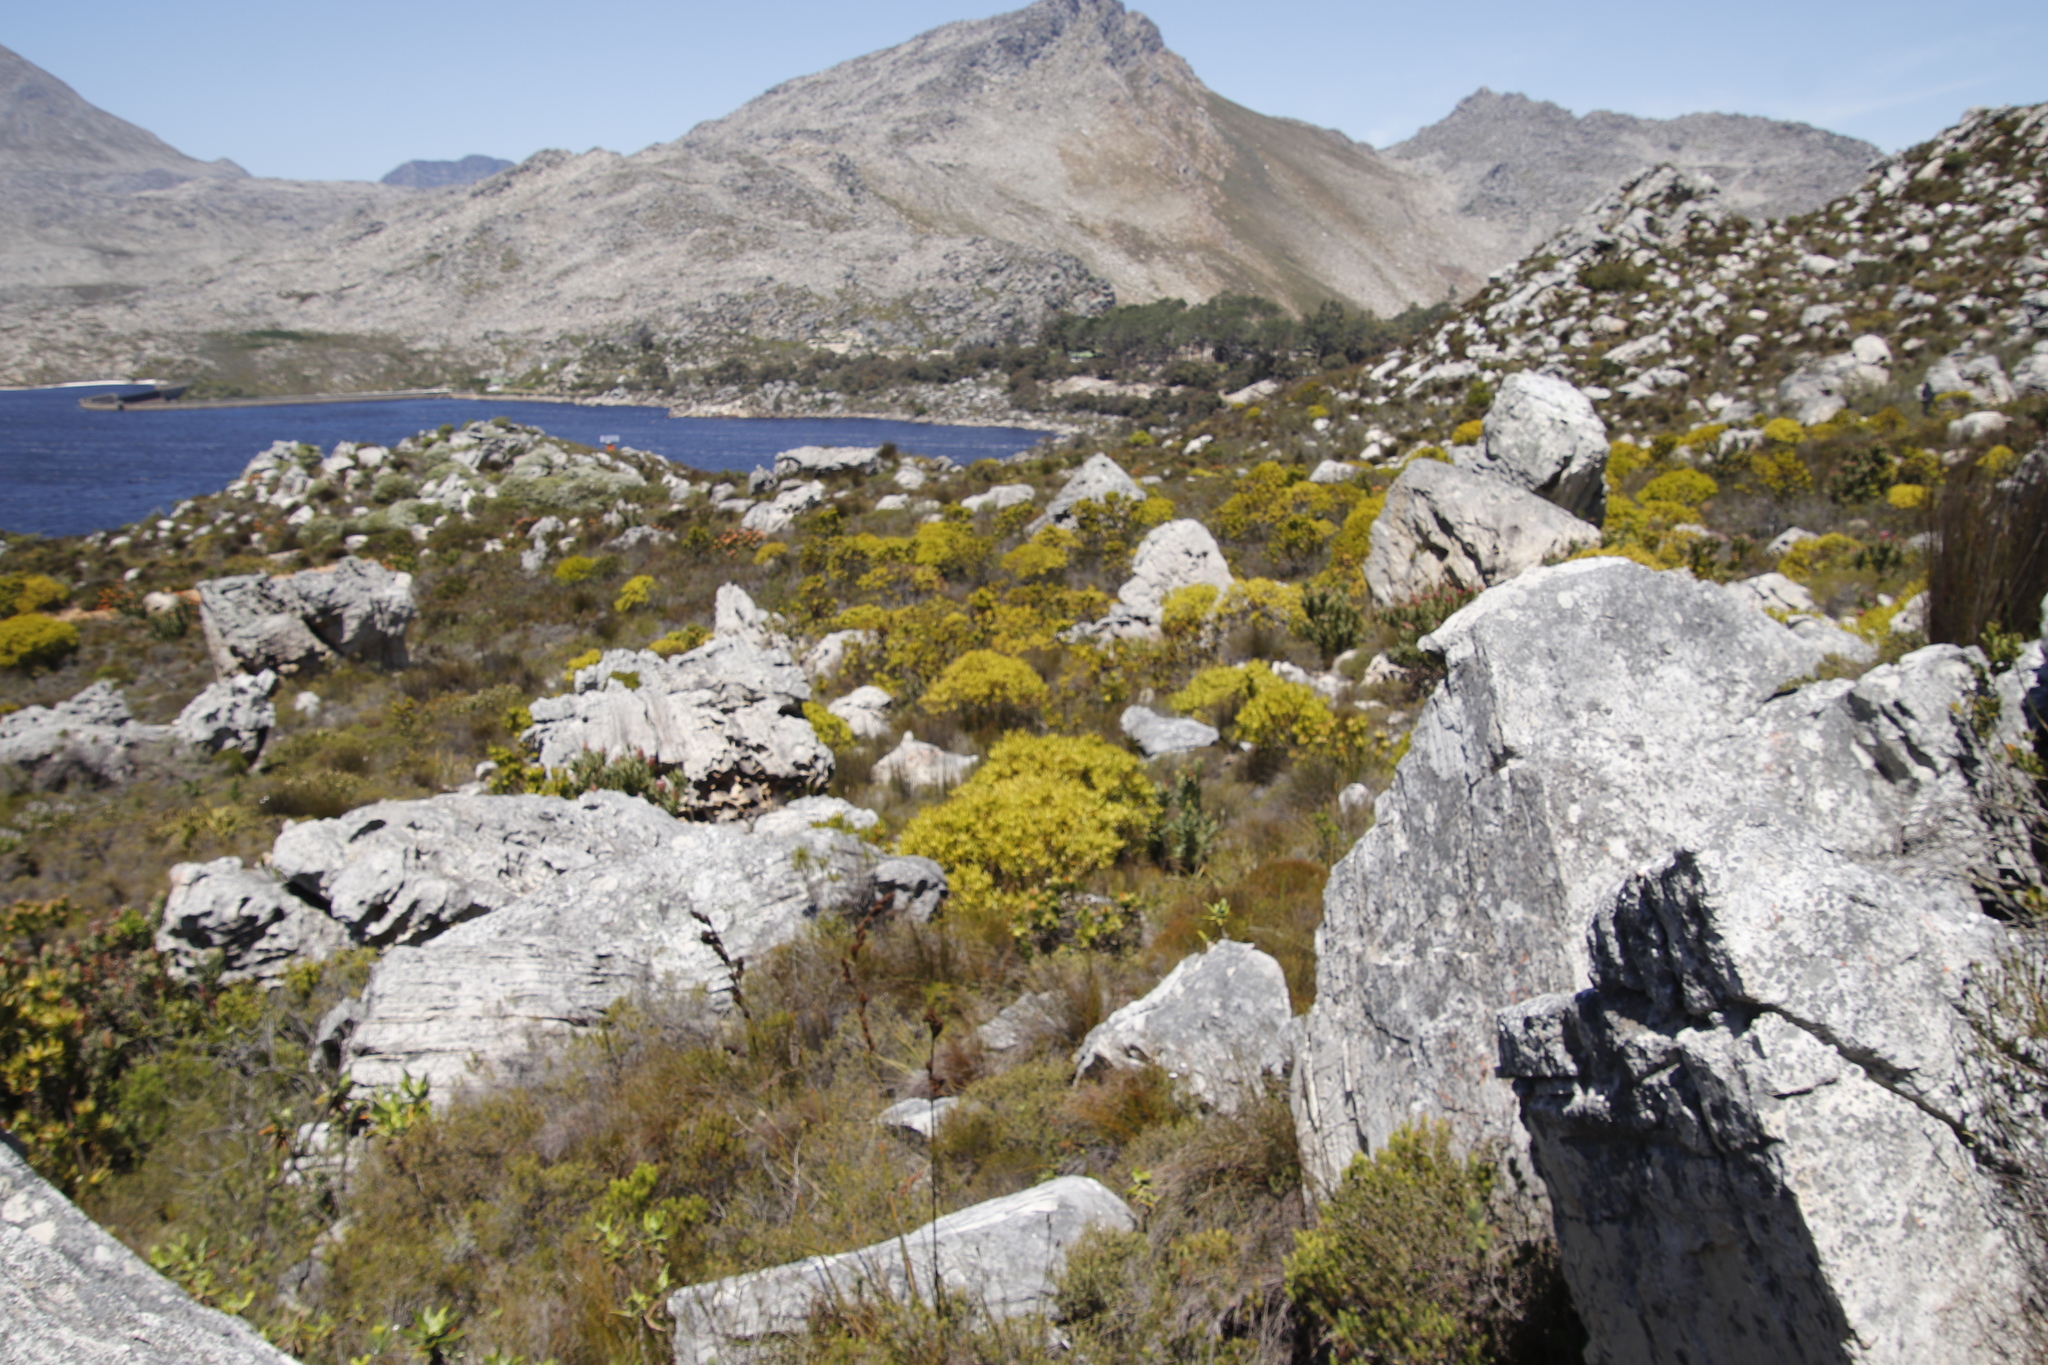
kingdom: Plantae
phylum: Tracheophyta
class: Magnoliopsida
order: Proteales
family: Proteaceae
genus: Leucadendron
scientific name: Leucadendron laureolum
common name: Golden sunshinebush
